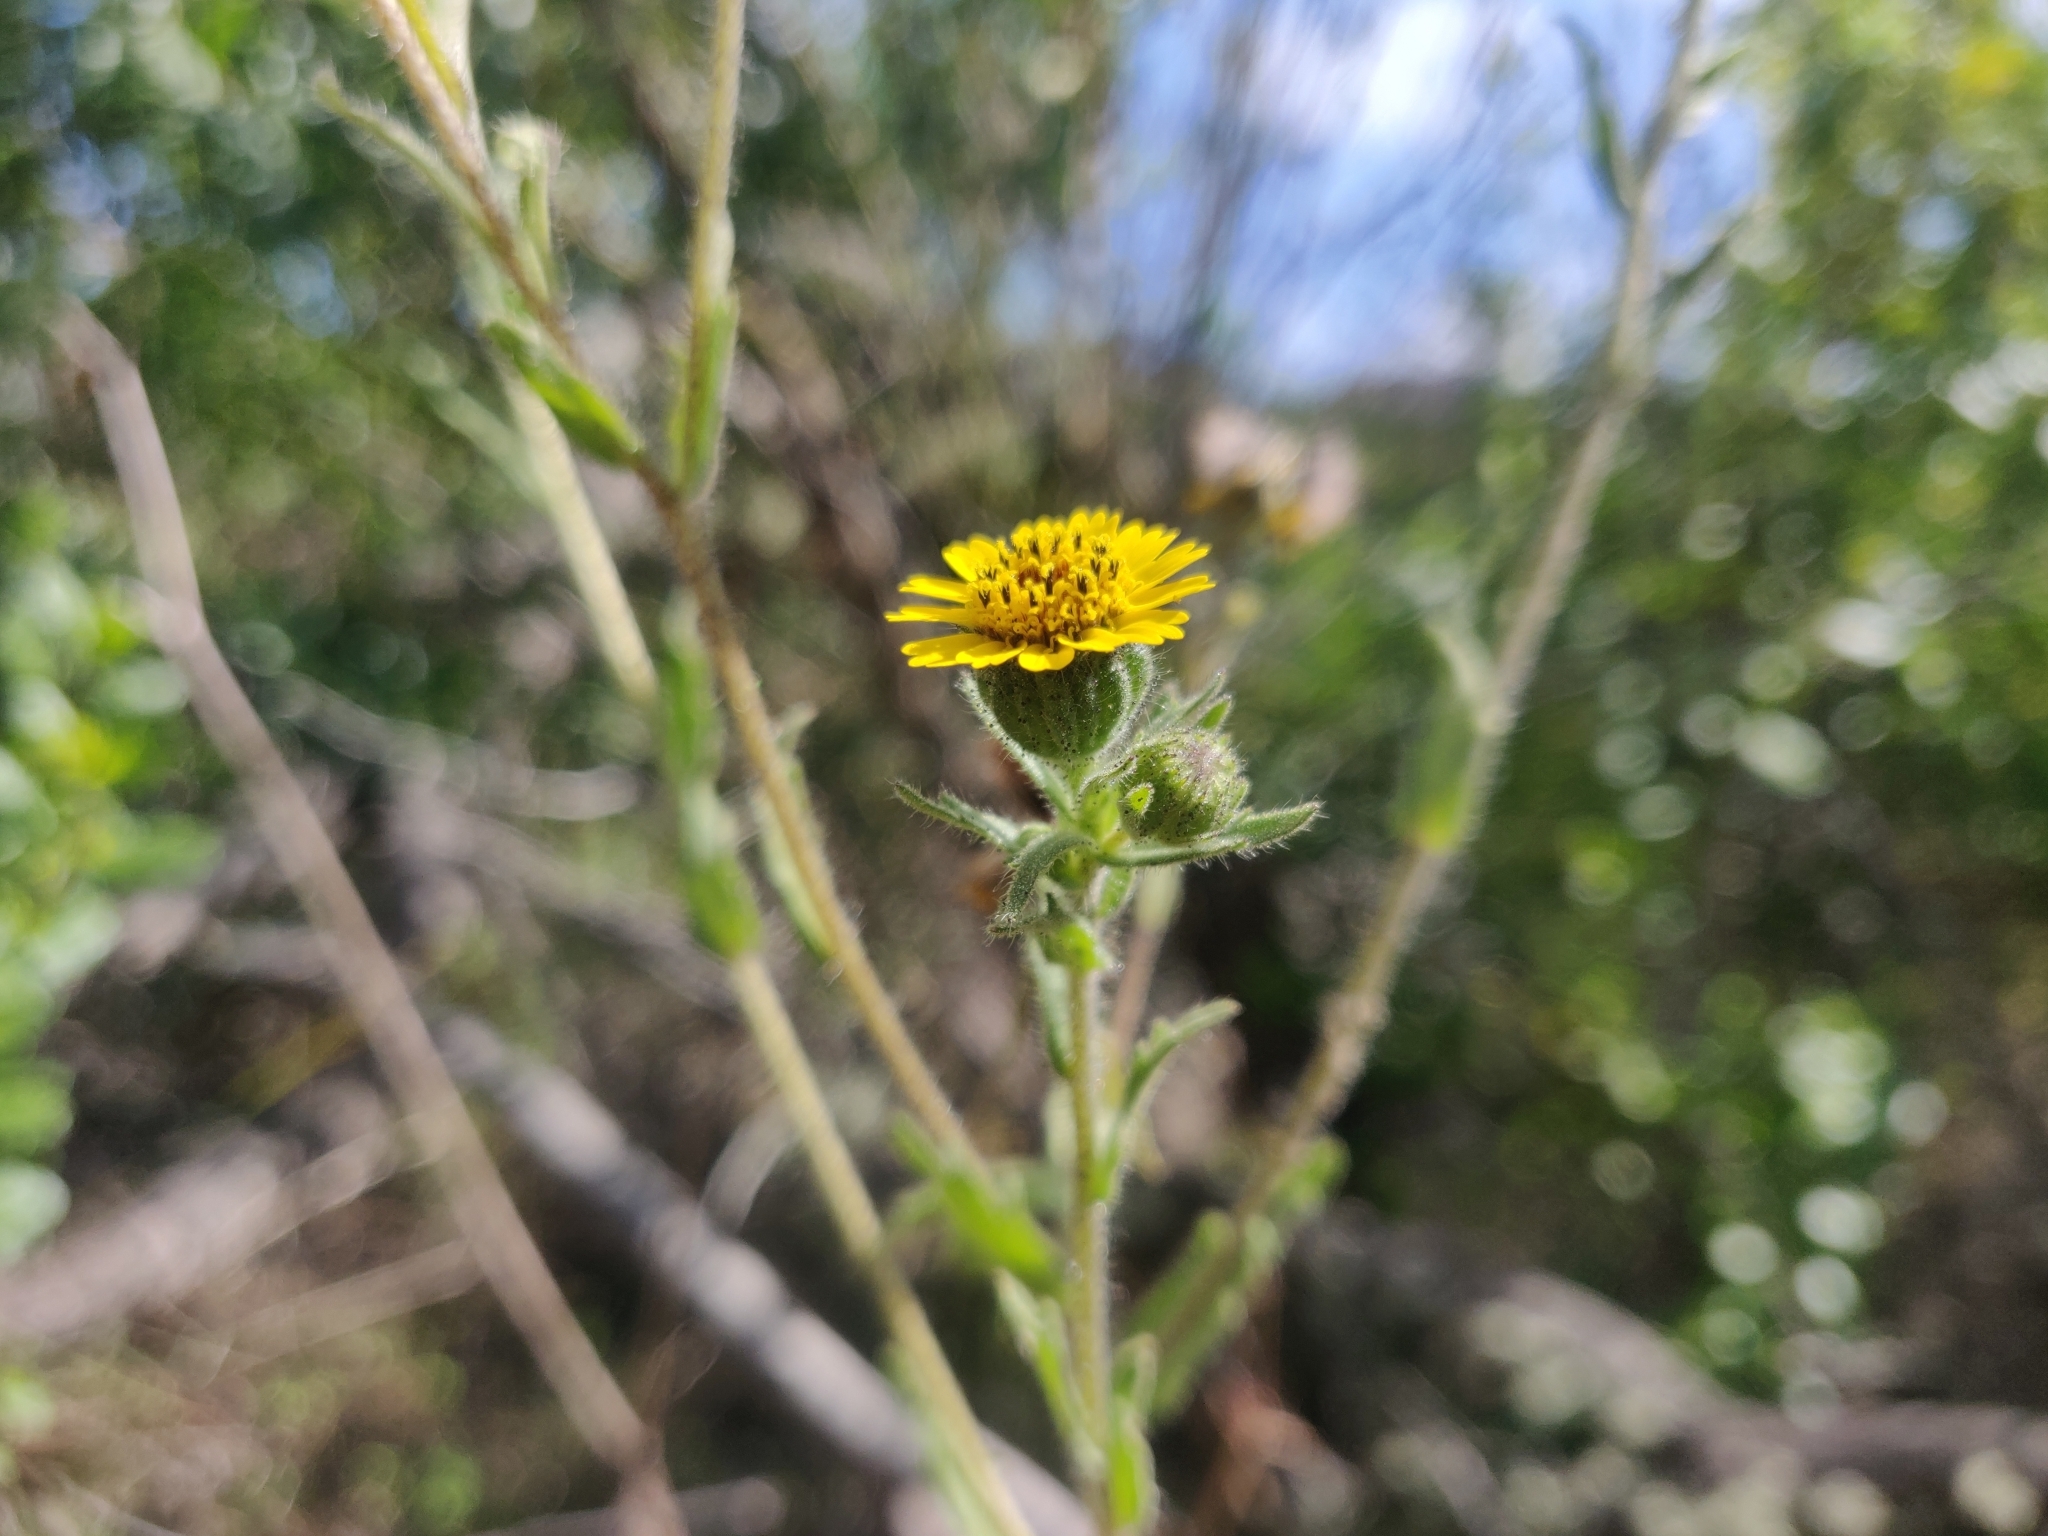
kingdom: Plantae
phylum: Tracheophyta
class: Magnoliopsida
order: Asterales
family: Asteraceae
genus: Layia
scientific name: Layia hieracioides
